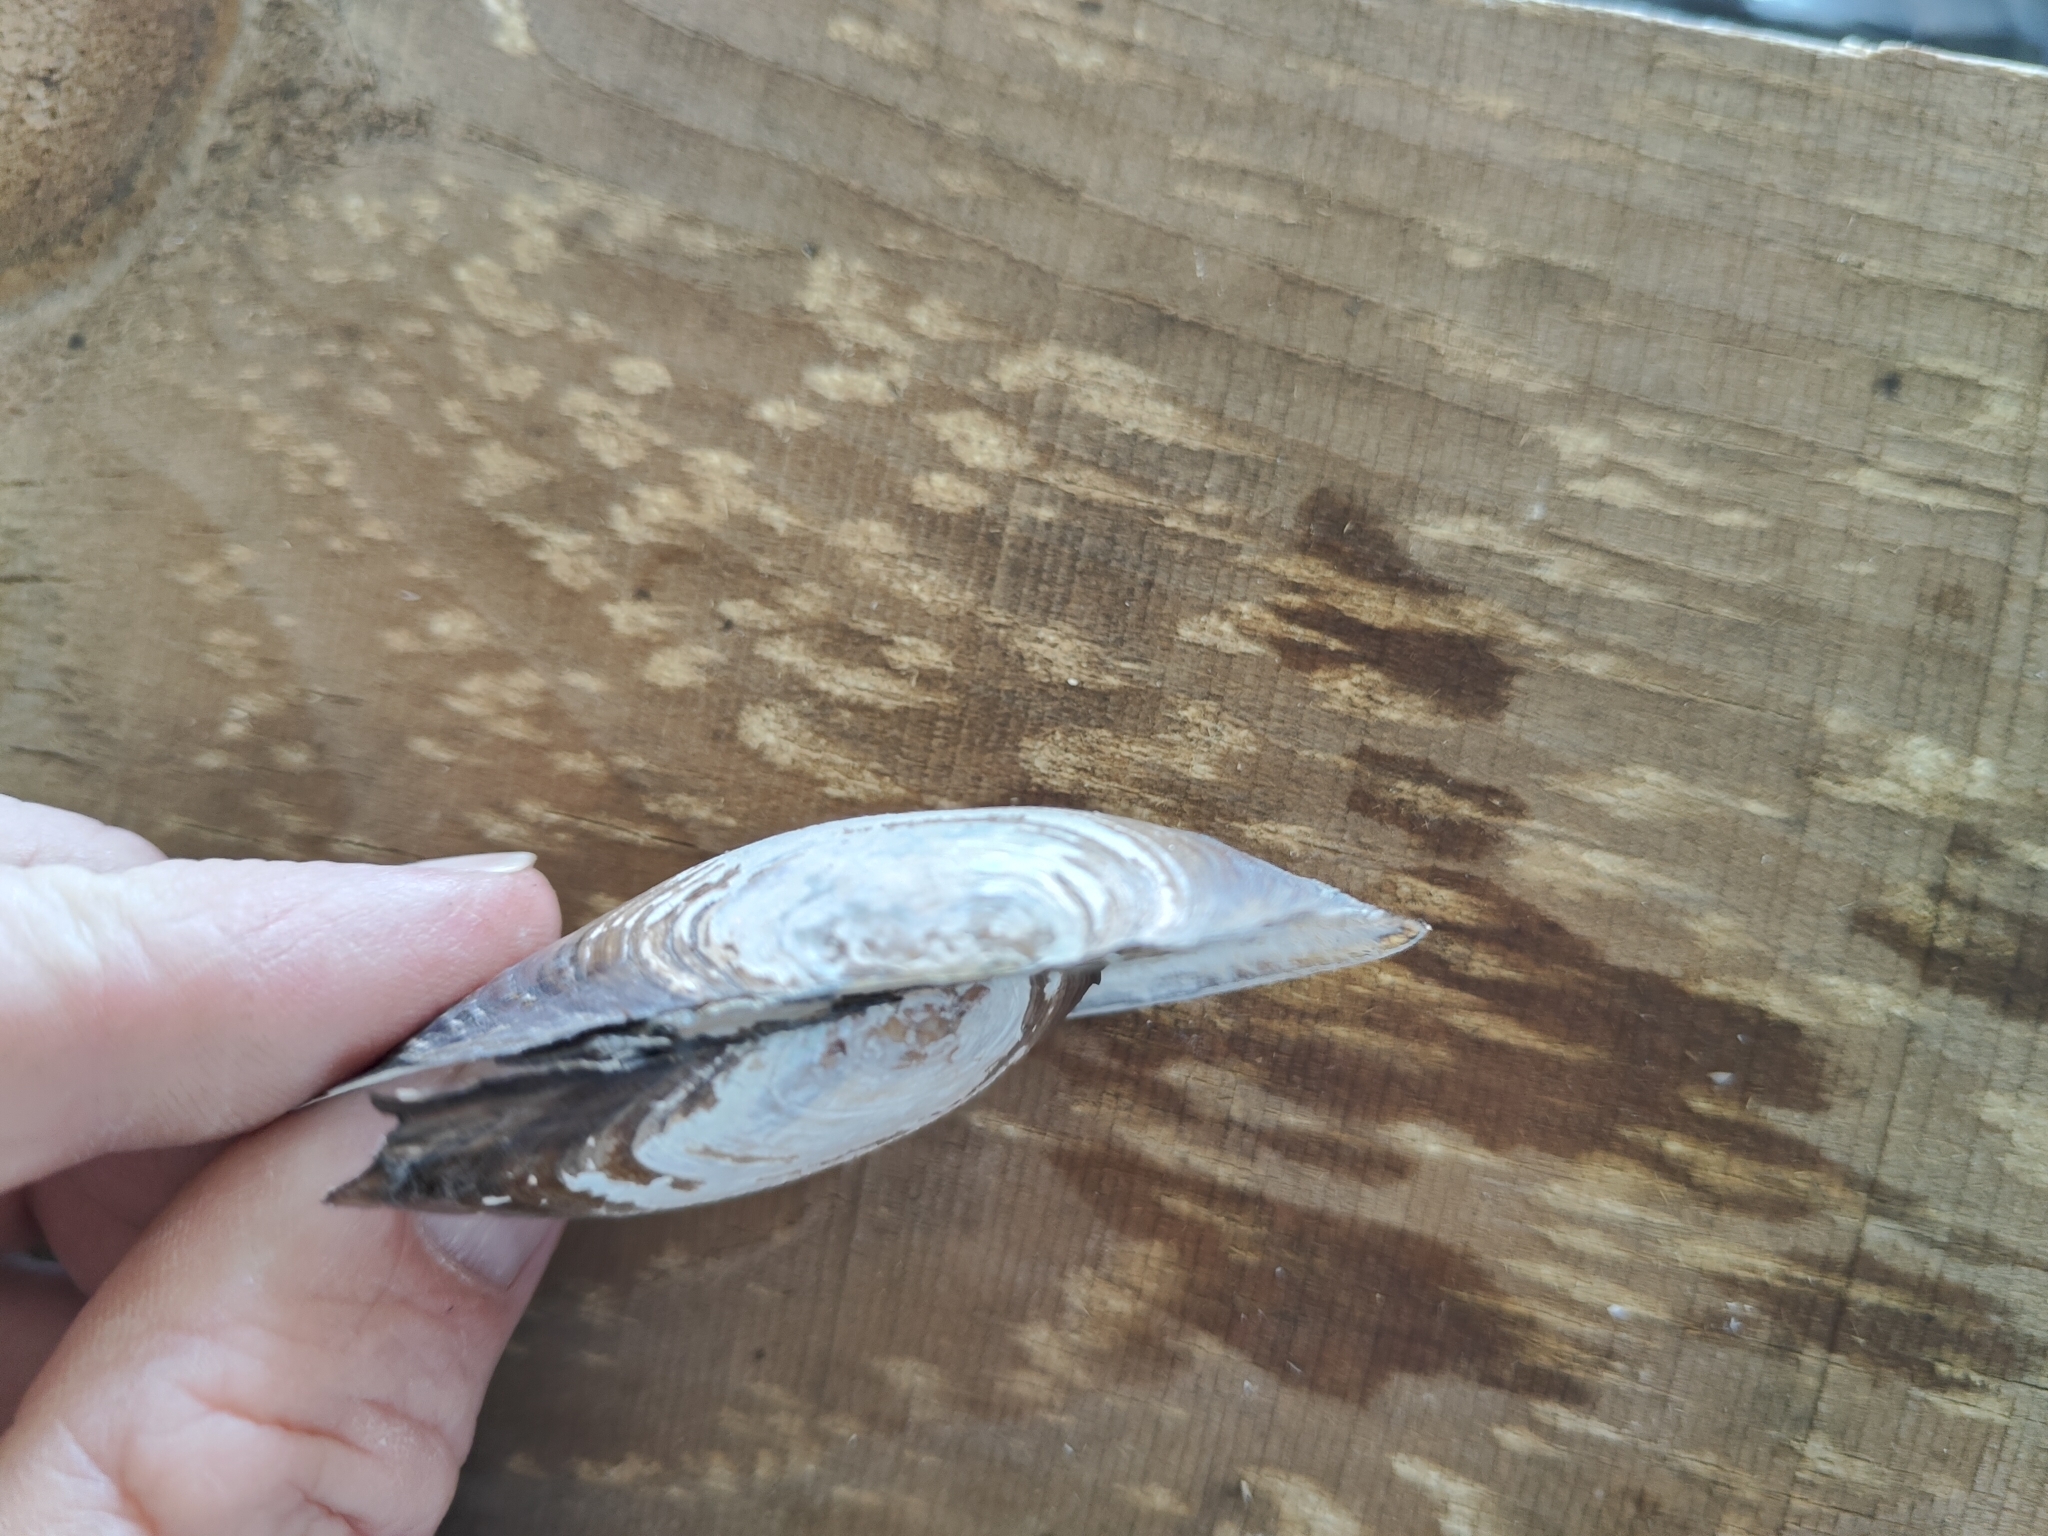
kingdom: Animalia
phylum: Mollusca
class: Bivalvia
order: Unionida
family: Unionidae
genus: Utterbackia
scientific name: Utterbackia imbecillis
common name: Paper pondshell
